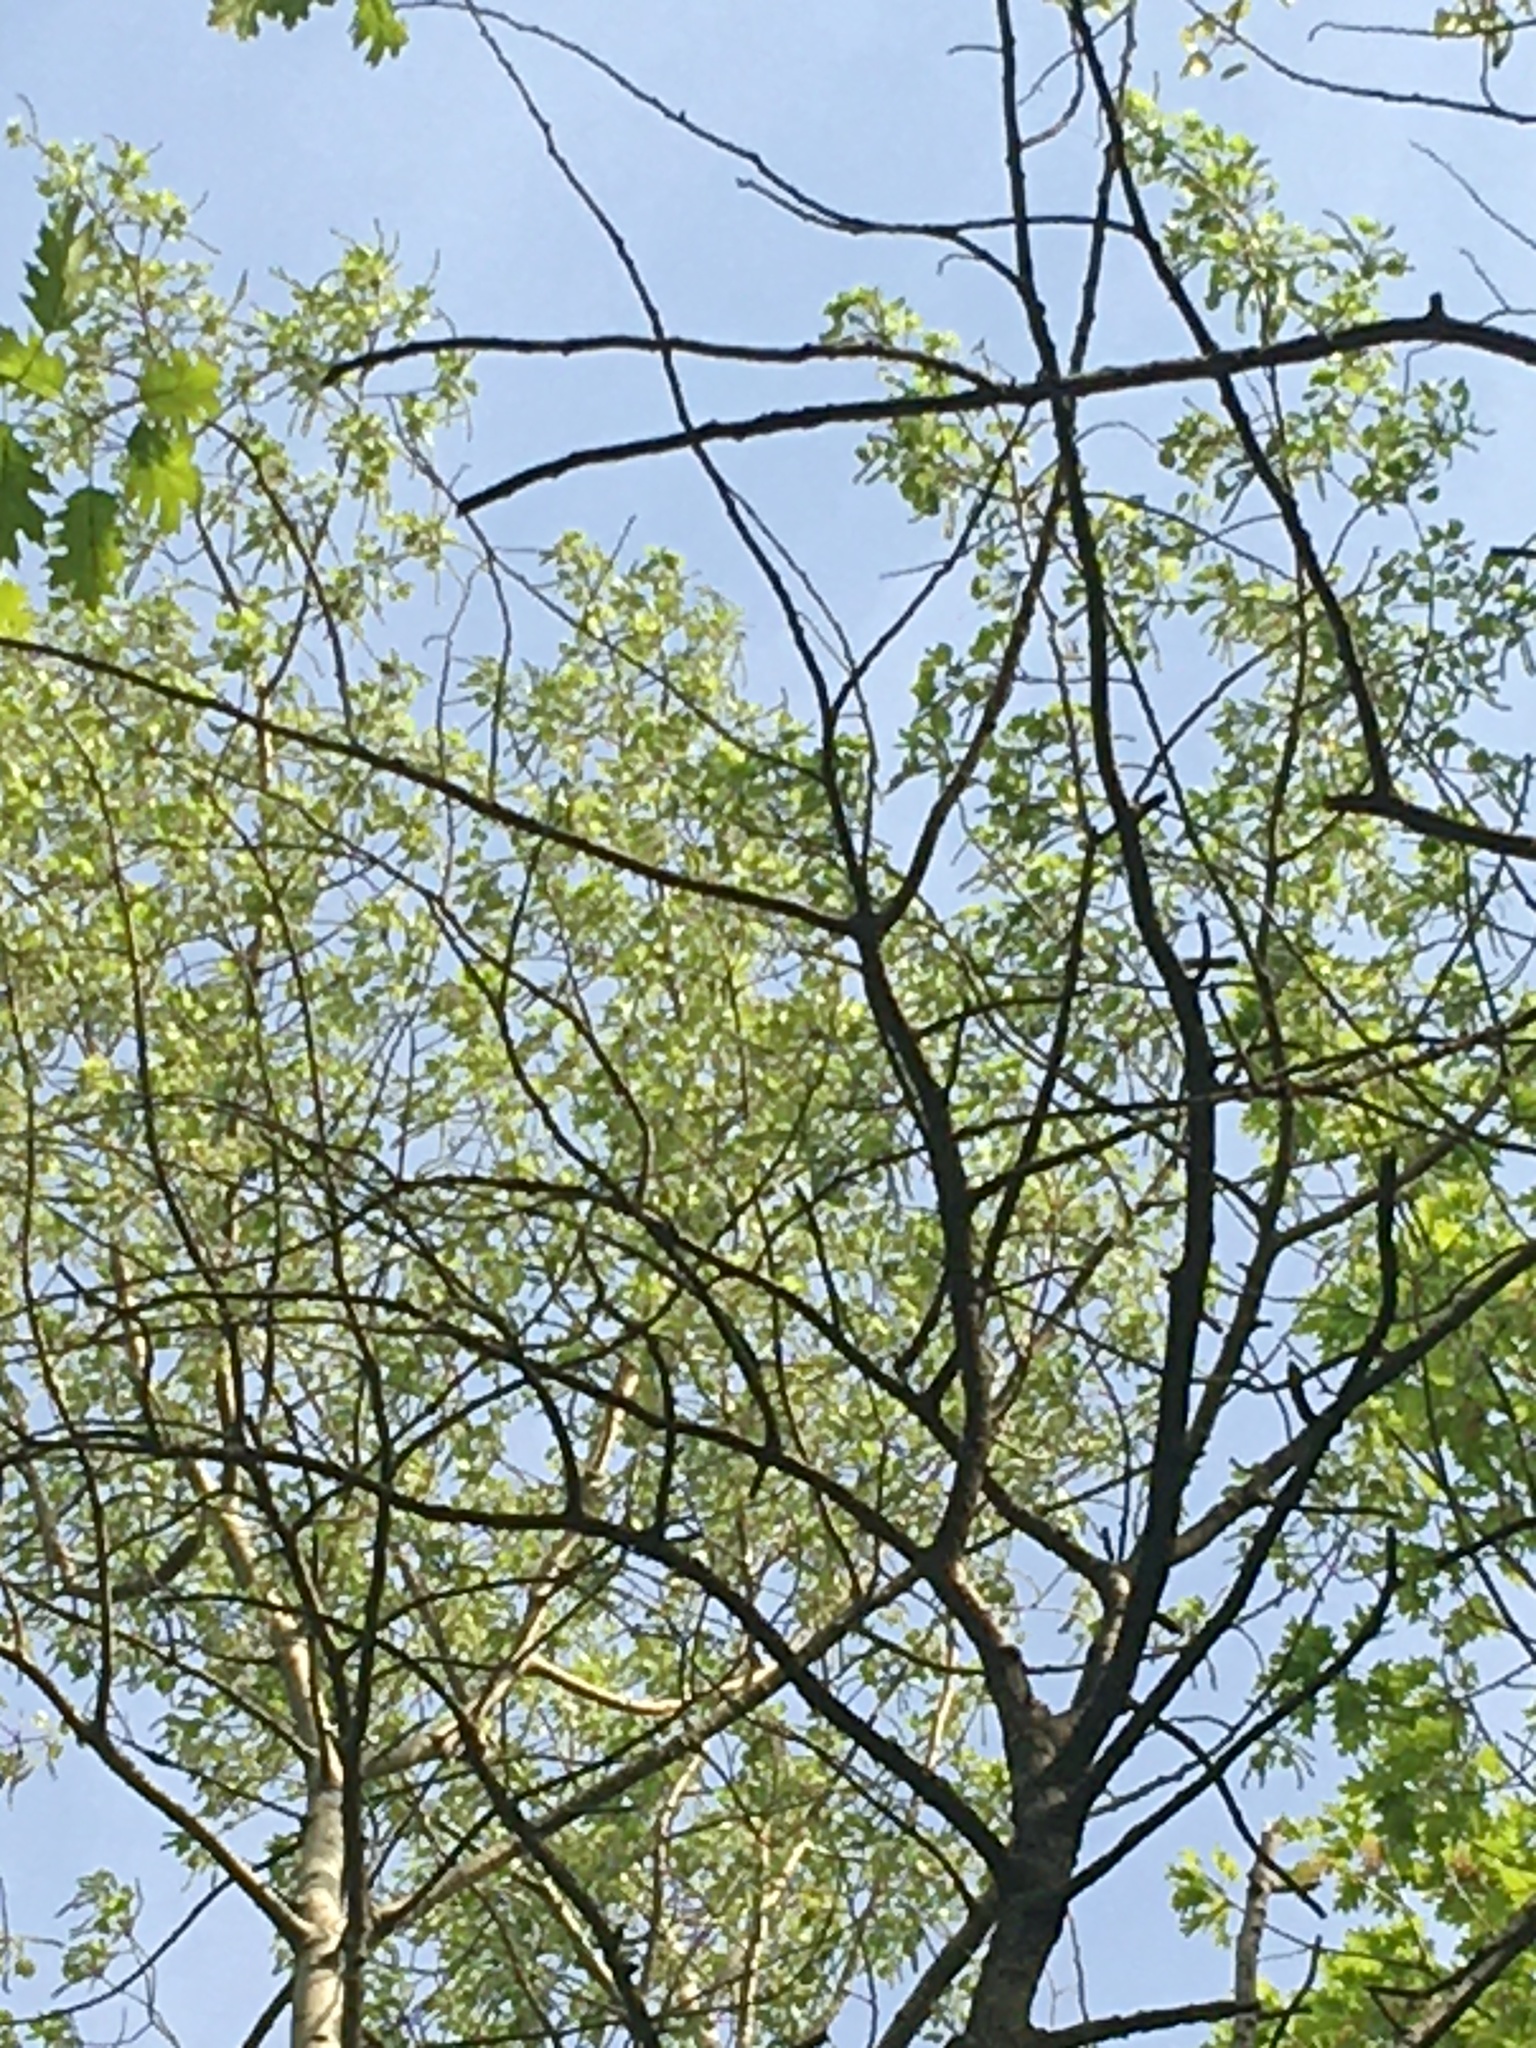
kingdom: Plantae
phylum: Tracheophyta
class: Magnoliopsida
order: Malpighiales
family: Salicaceae
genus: Populus
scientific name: Populus tremuloides
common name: Quaking aspen
